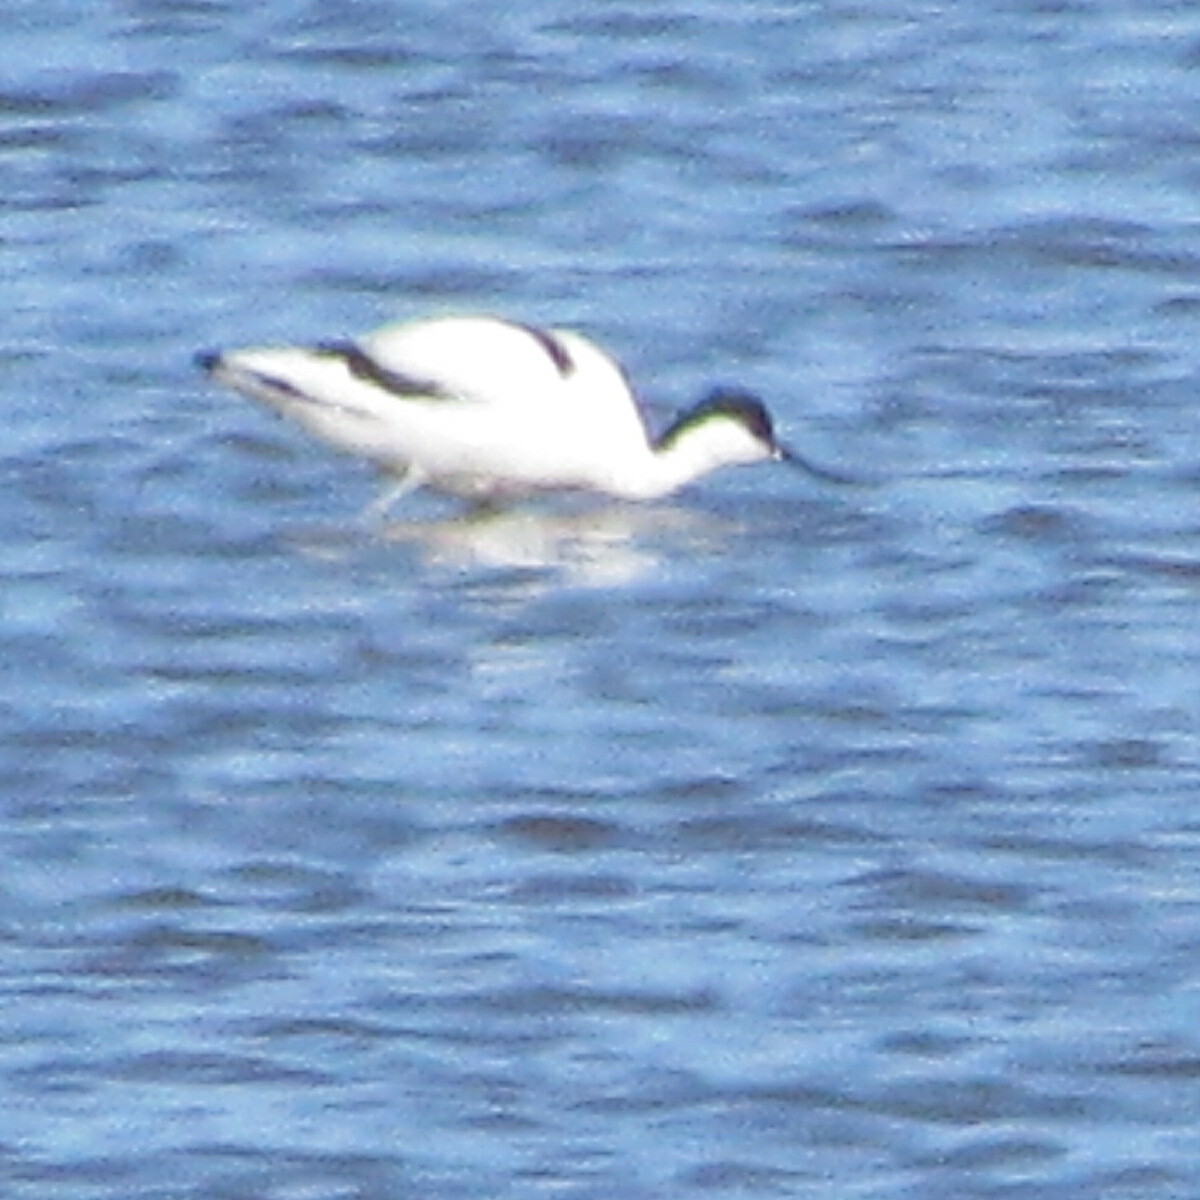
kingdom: Animalia
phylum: Chordata
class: Aves
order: Charadriiformes
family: Recurvirostridae
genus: Recurvirostra
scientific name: Recurvirostra avosetta
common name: Pied avocet
